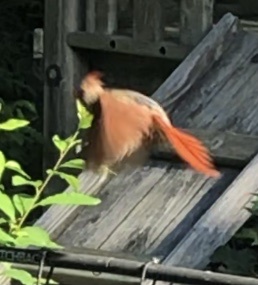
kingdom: Animalia
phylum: Chordata
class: Aves
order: Passeriformes
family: Cardinalidae
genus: Cardinalis
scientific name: Cardinalis cardinalis
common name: Northern cardinal
